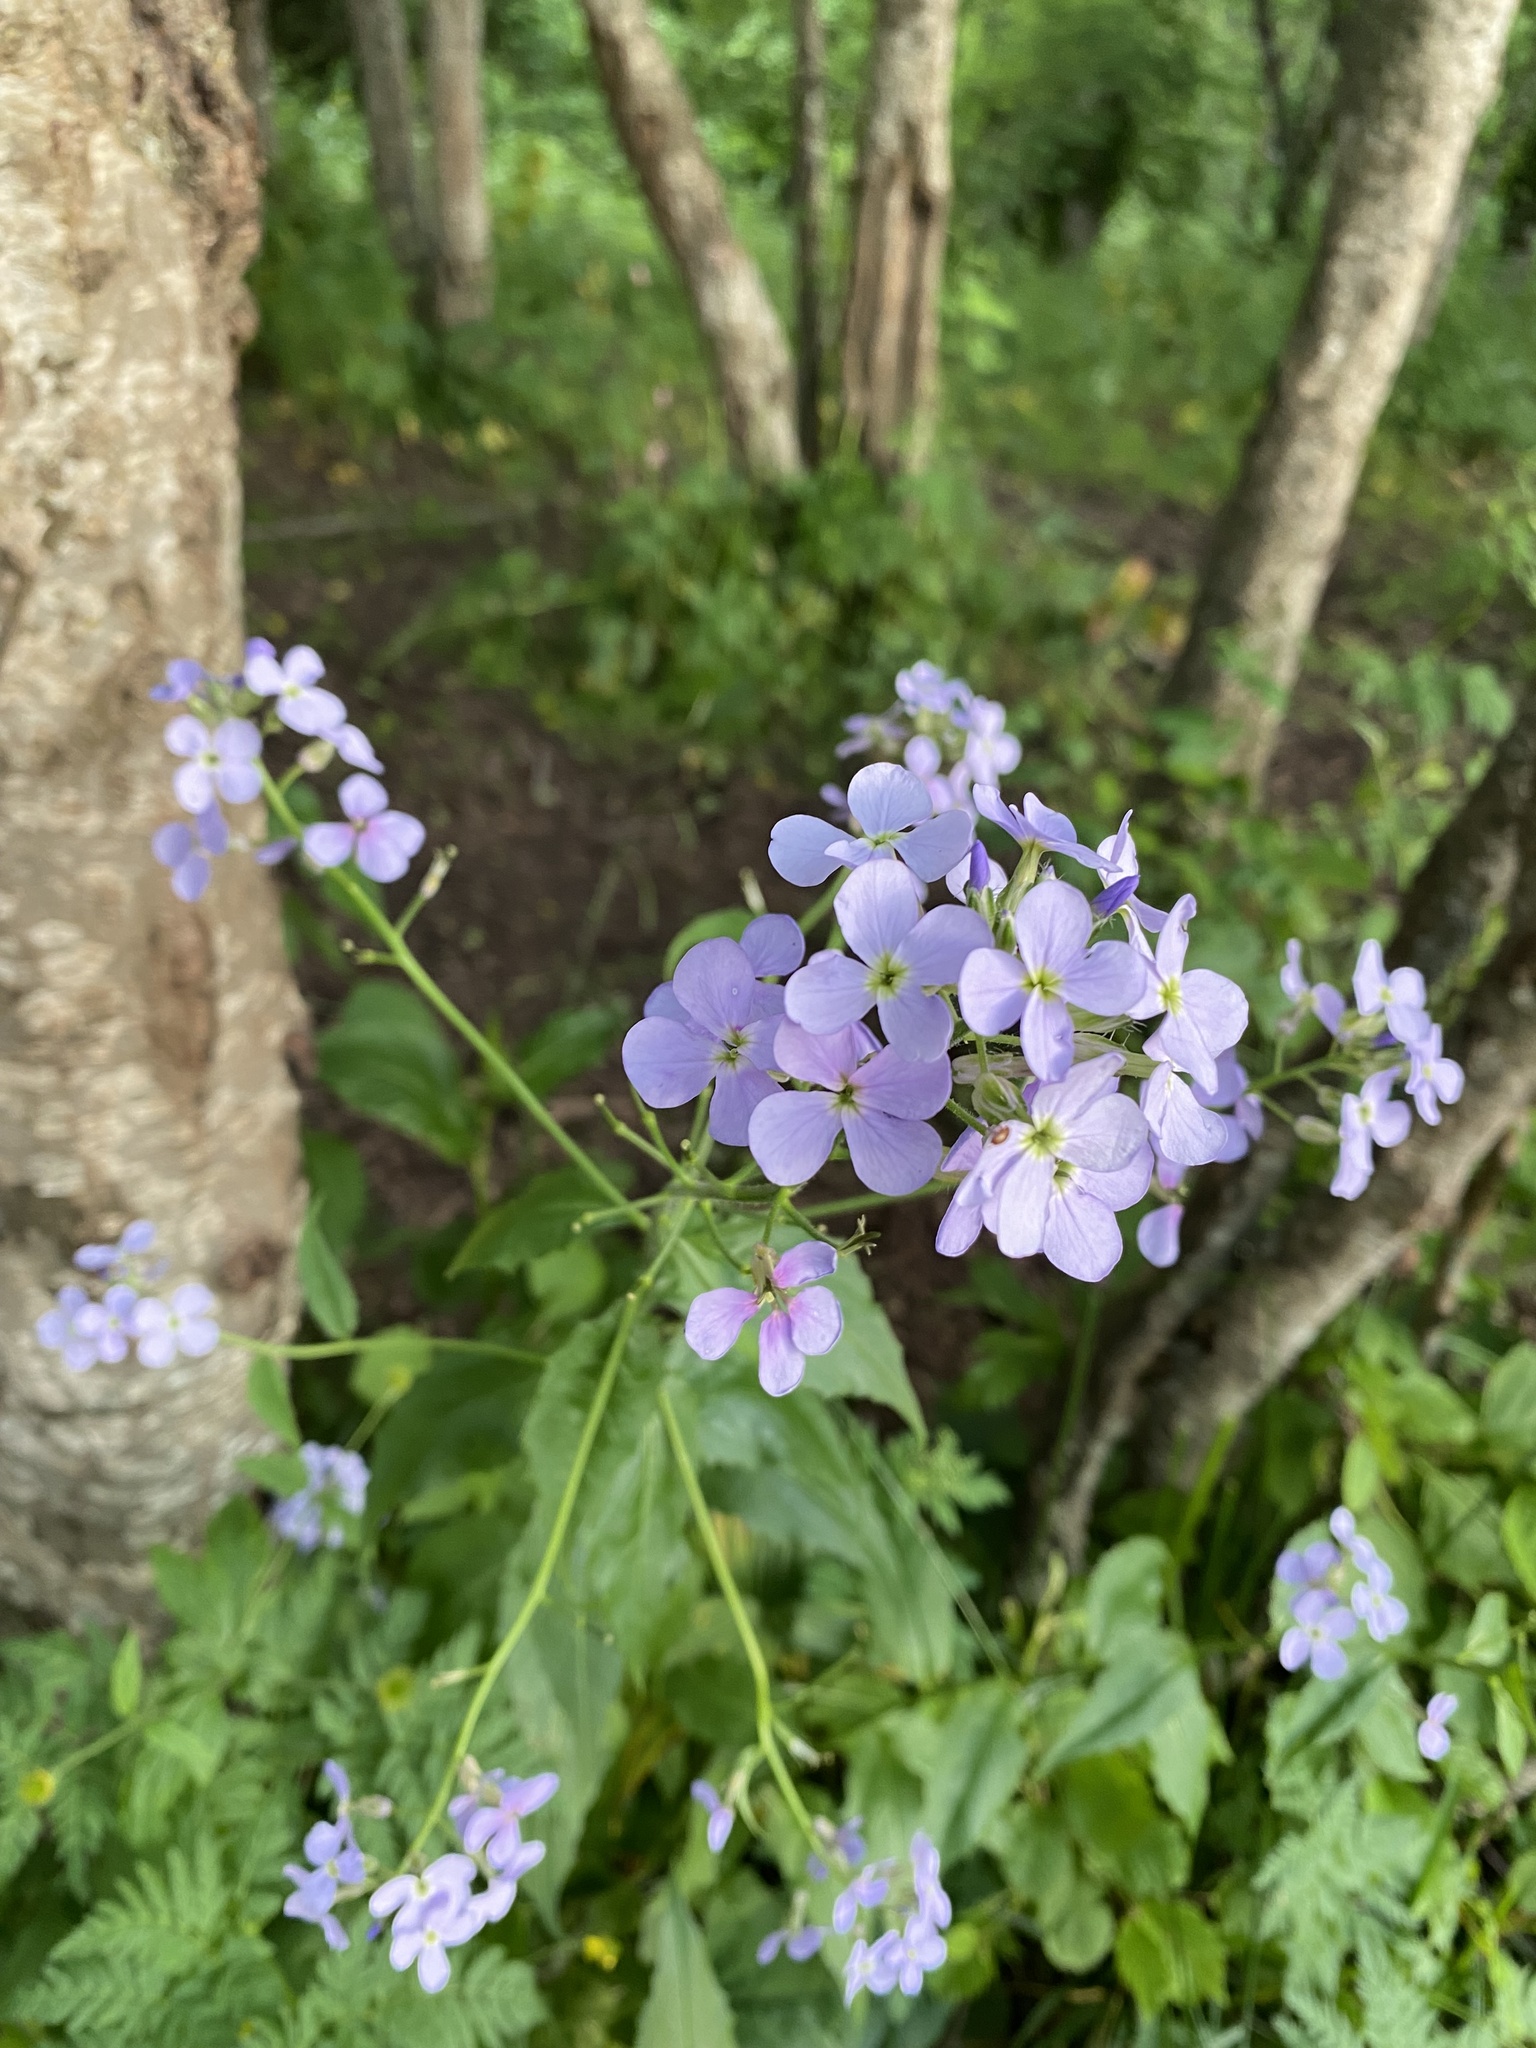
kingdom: Plantae
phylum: Tracheophyta
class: Magnoliopsida
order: Brassicales
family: Brassicaceae
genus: Hesperis
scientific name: Hesperis matronalis
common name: Dame's-violet
